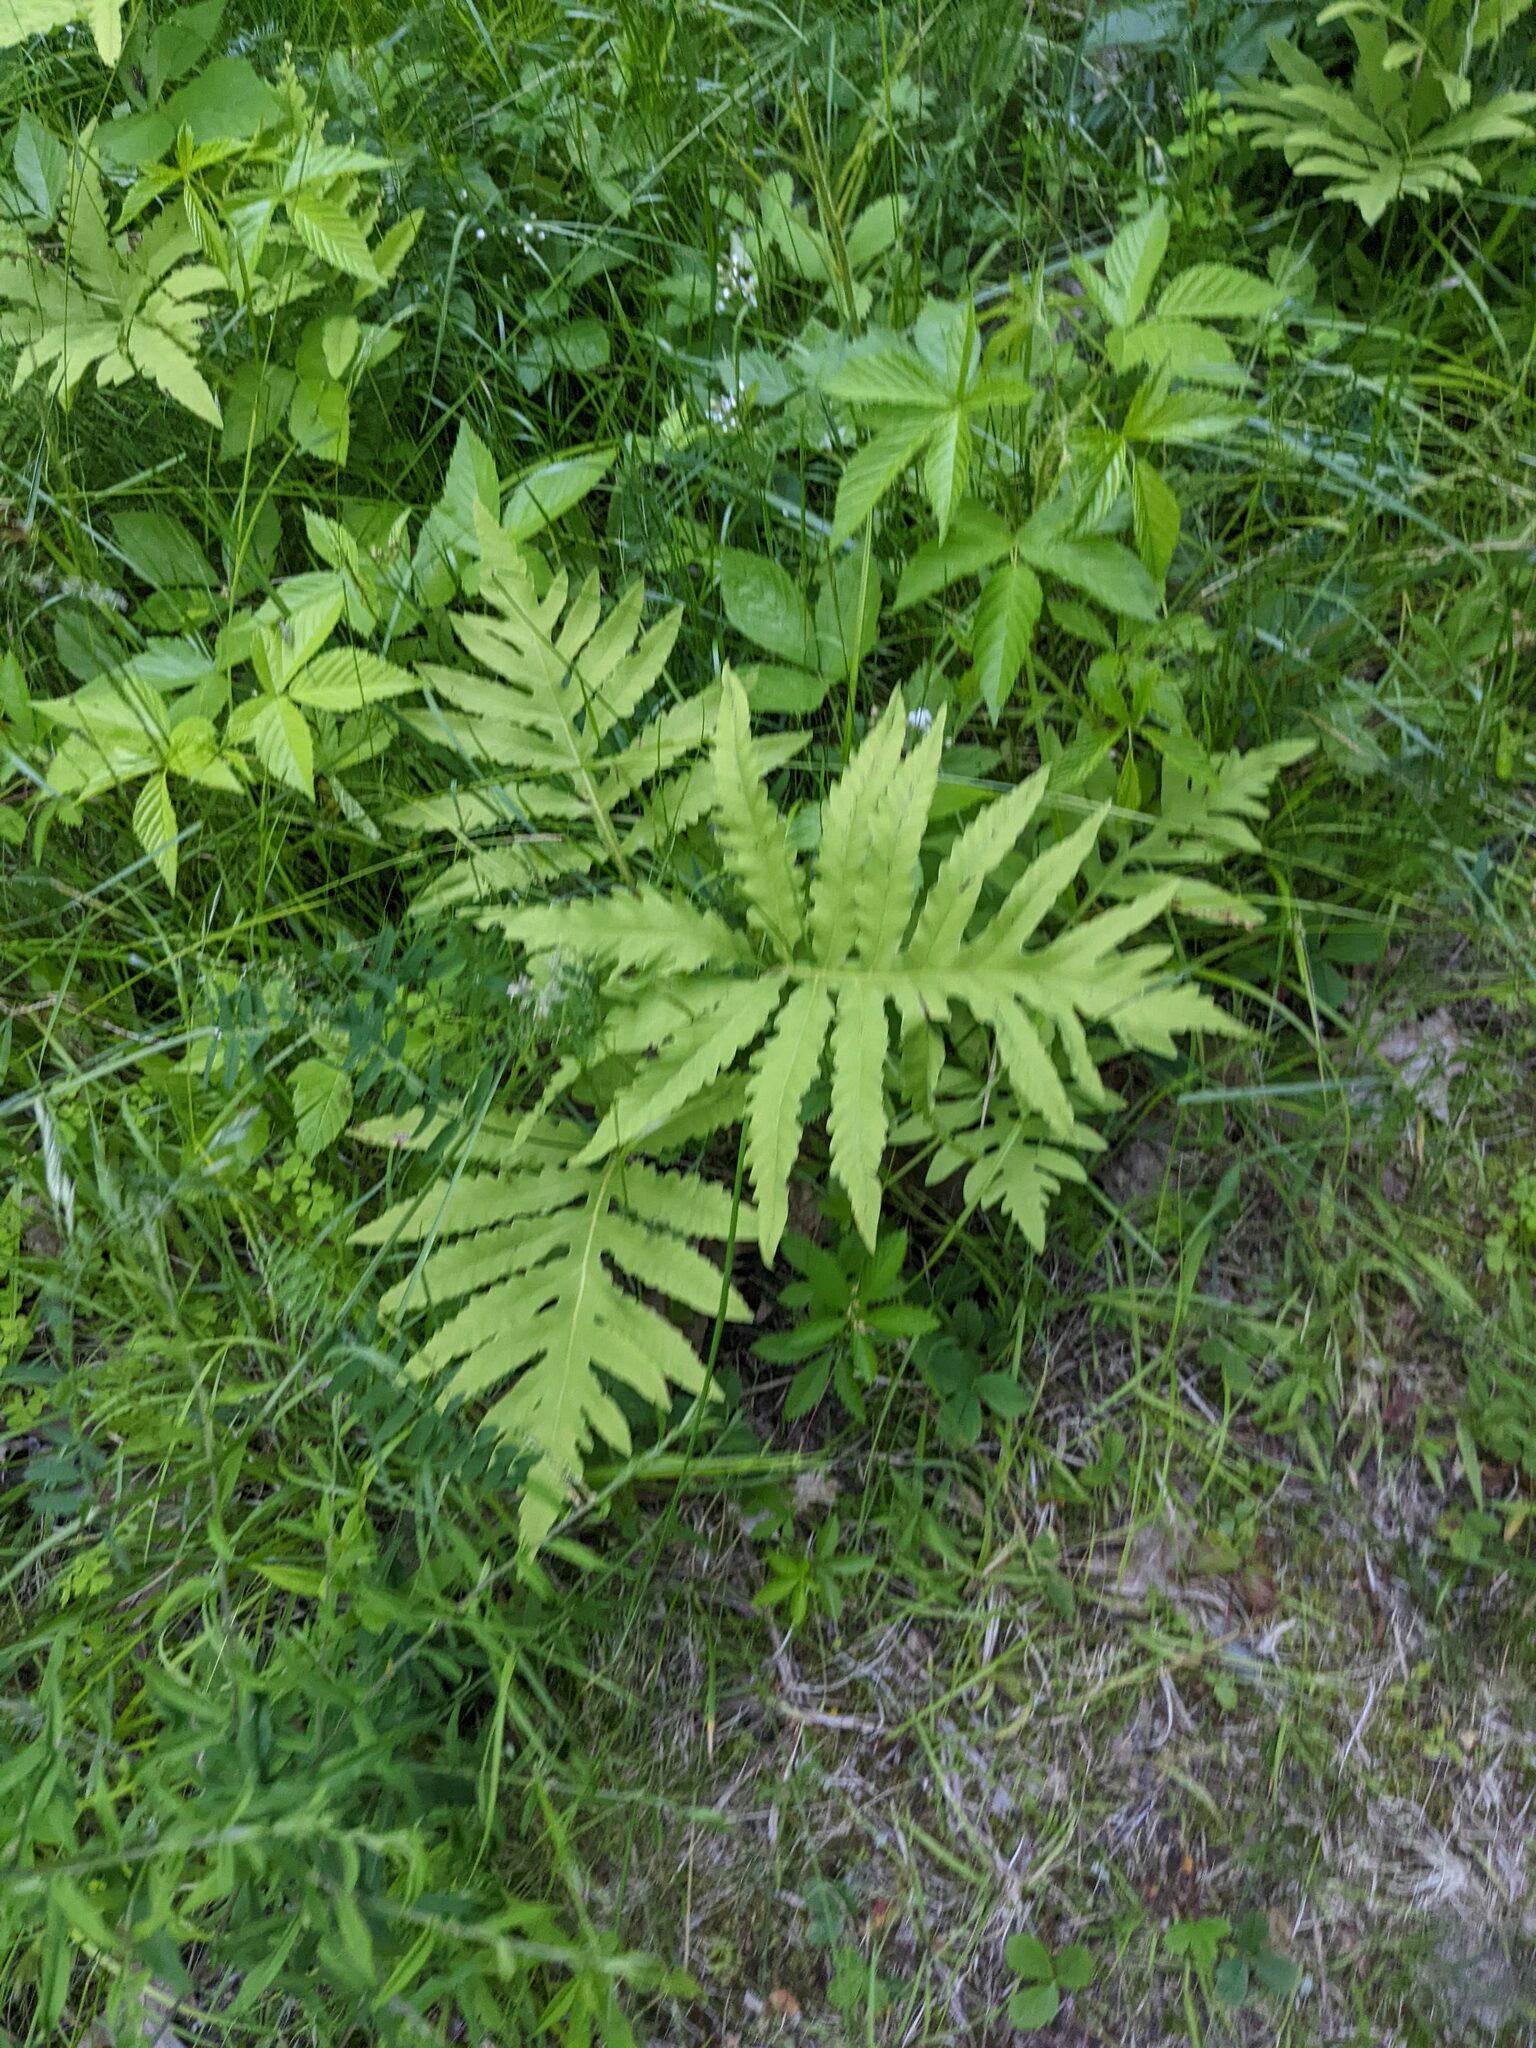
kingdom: Plantae
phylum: Tracheophyta
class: Polypodiopsida
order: Polypodiales
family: Onocleaceae
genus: Onoclea
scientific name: Onoclea sensibilis
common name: Sensitive fern
